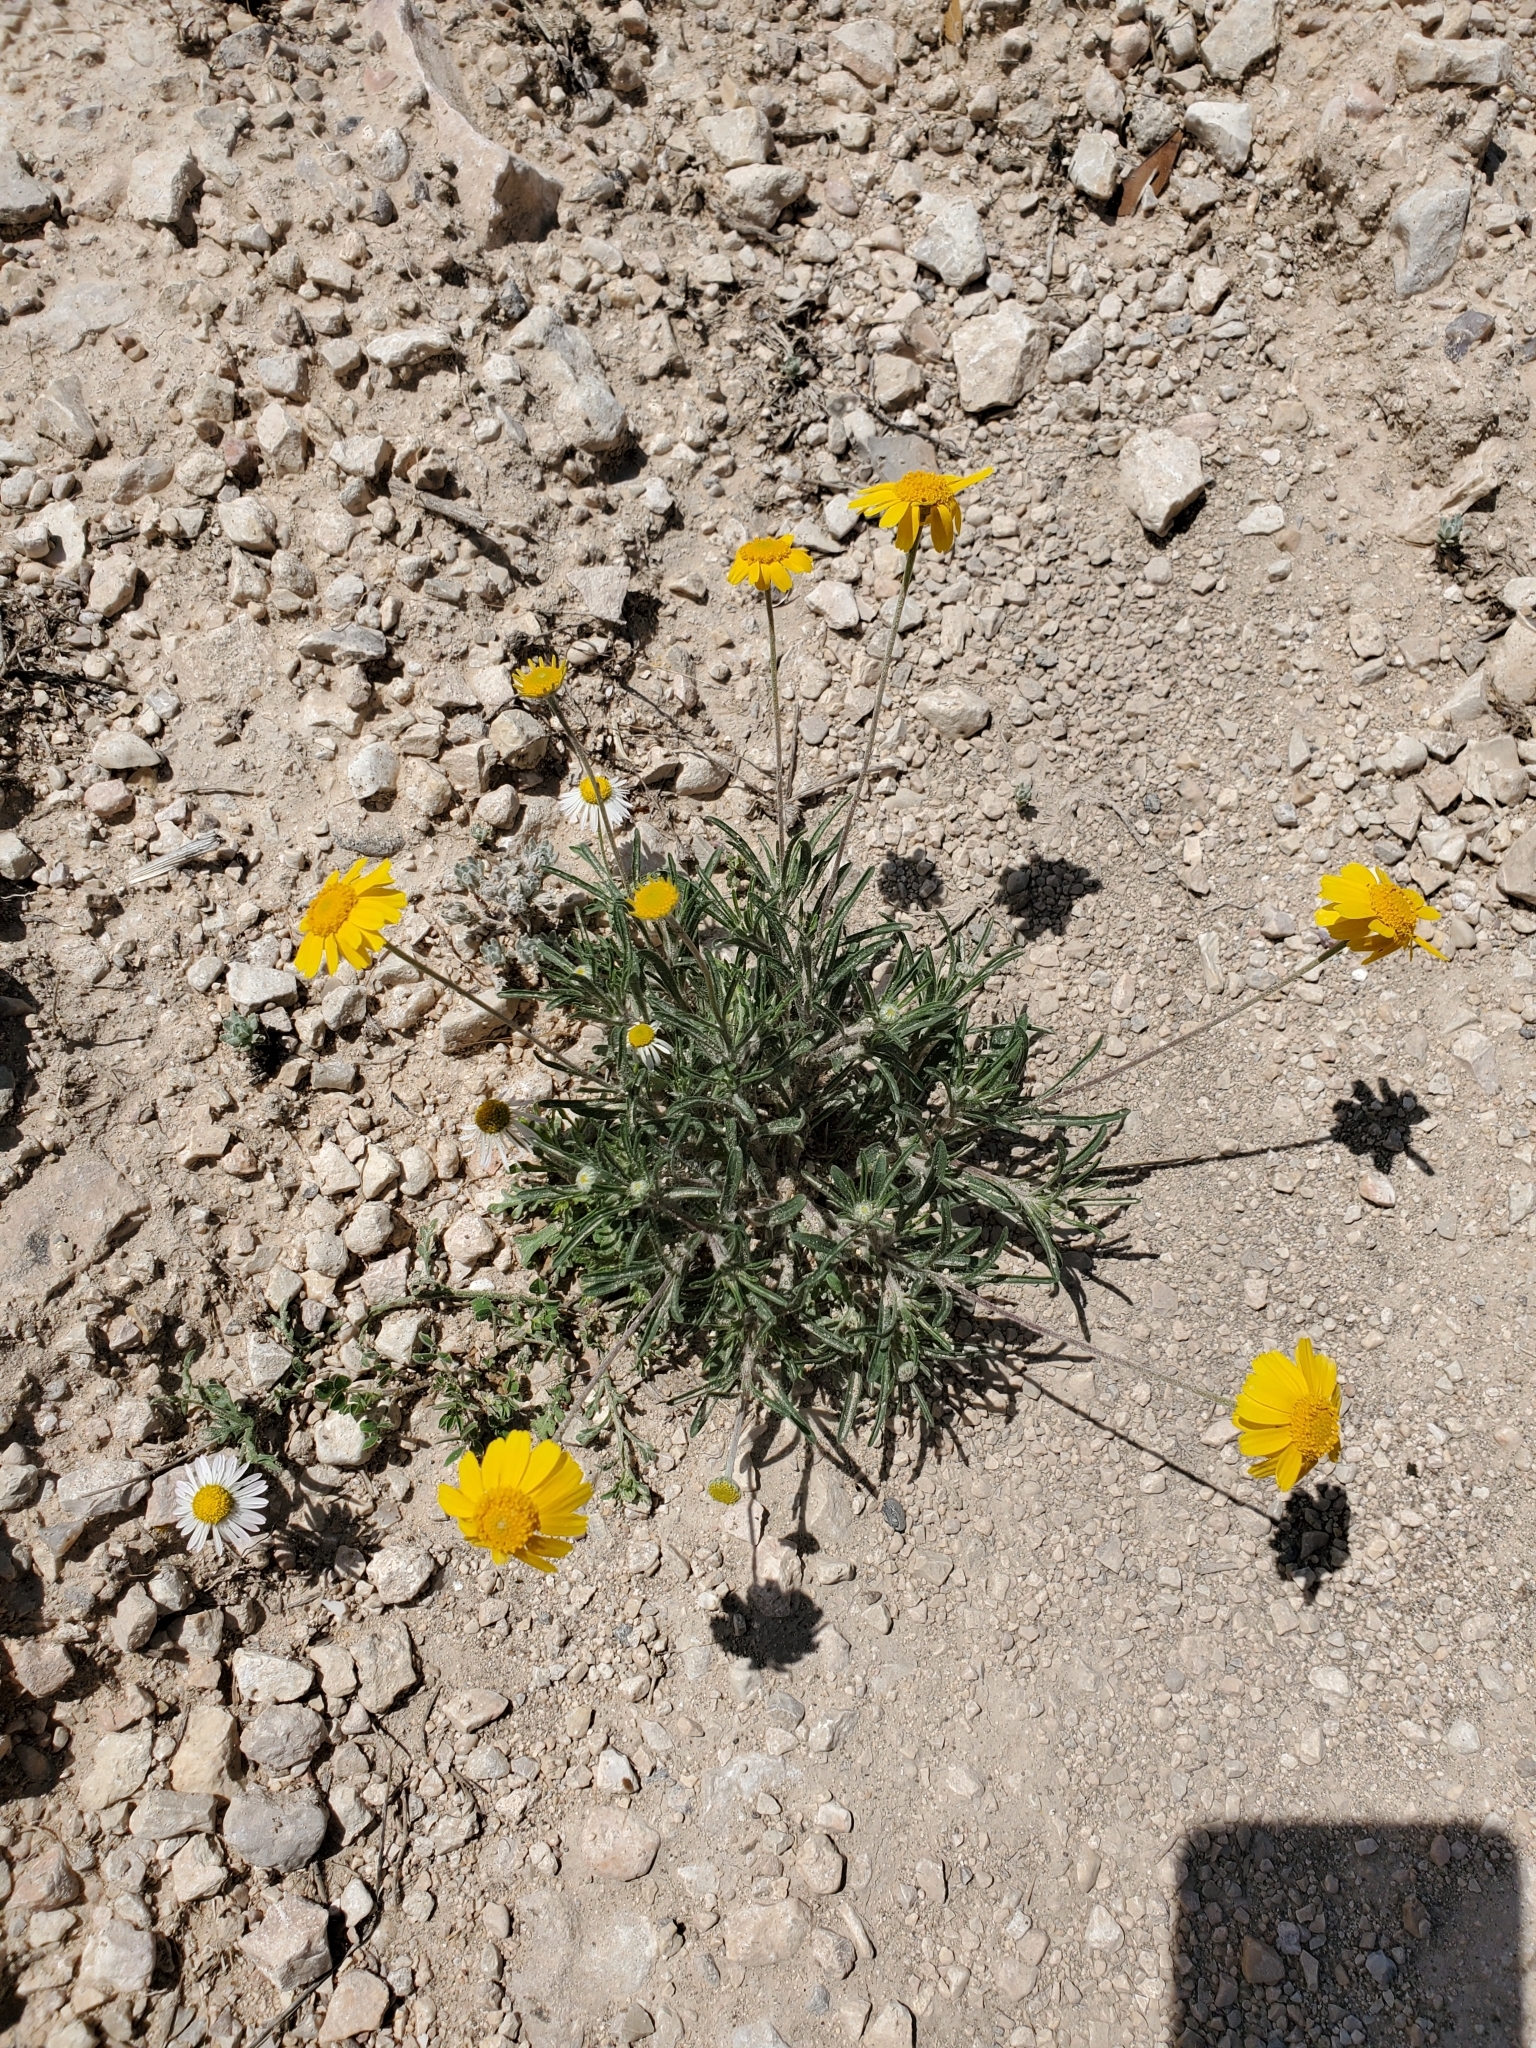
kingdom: Plantae
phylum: Tracheophyta
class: Magnoliopsida
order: Asterales
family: Asteraceae
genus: Tetraneuris
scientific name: Tetraneuris scaposa
